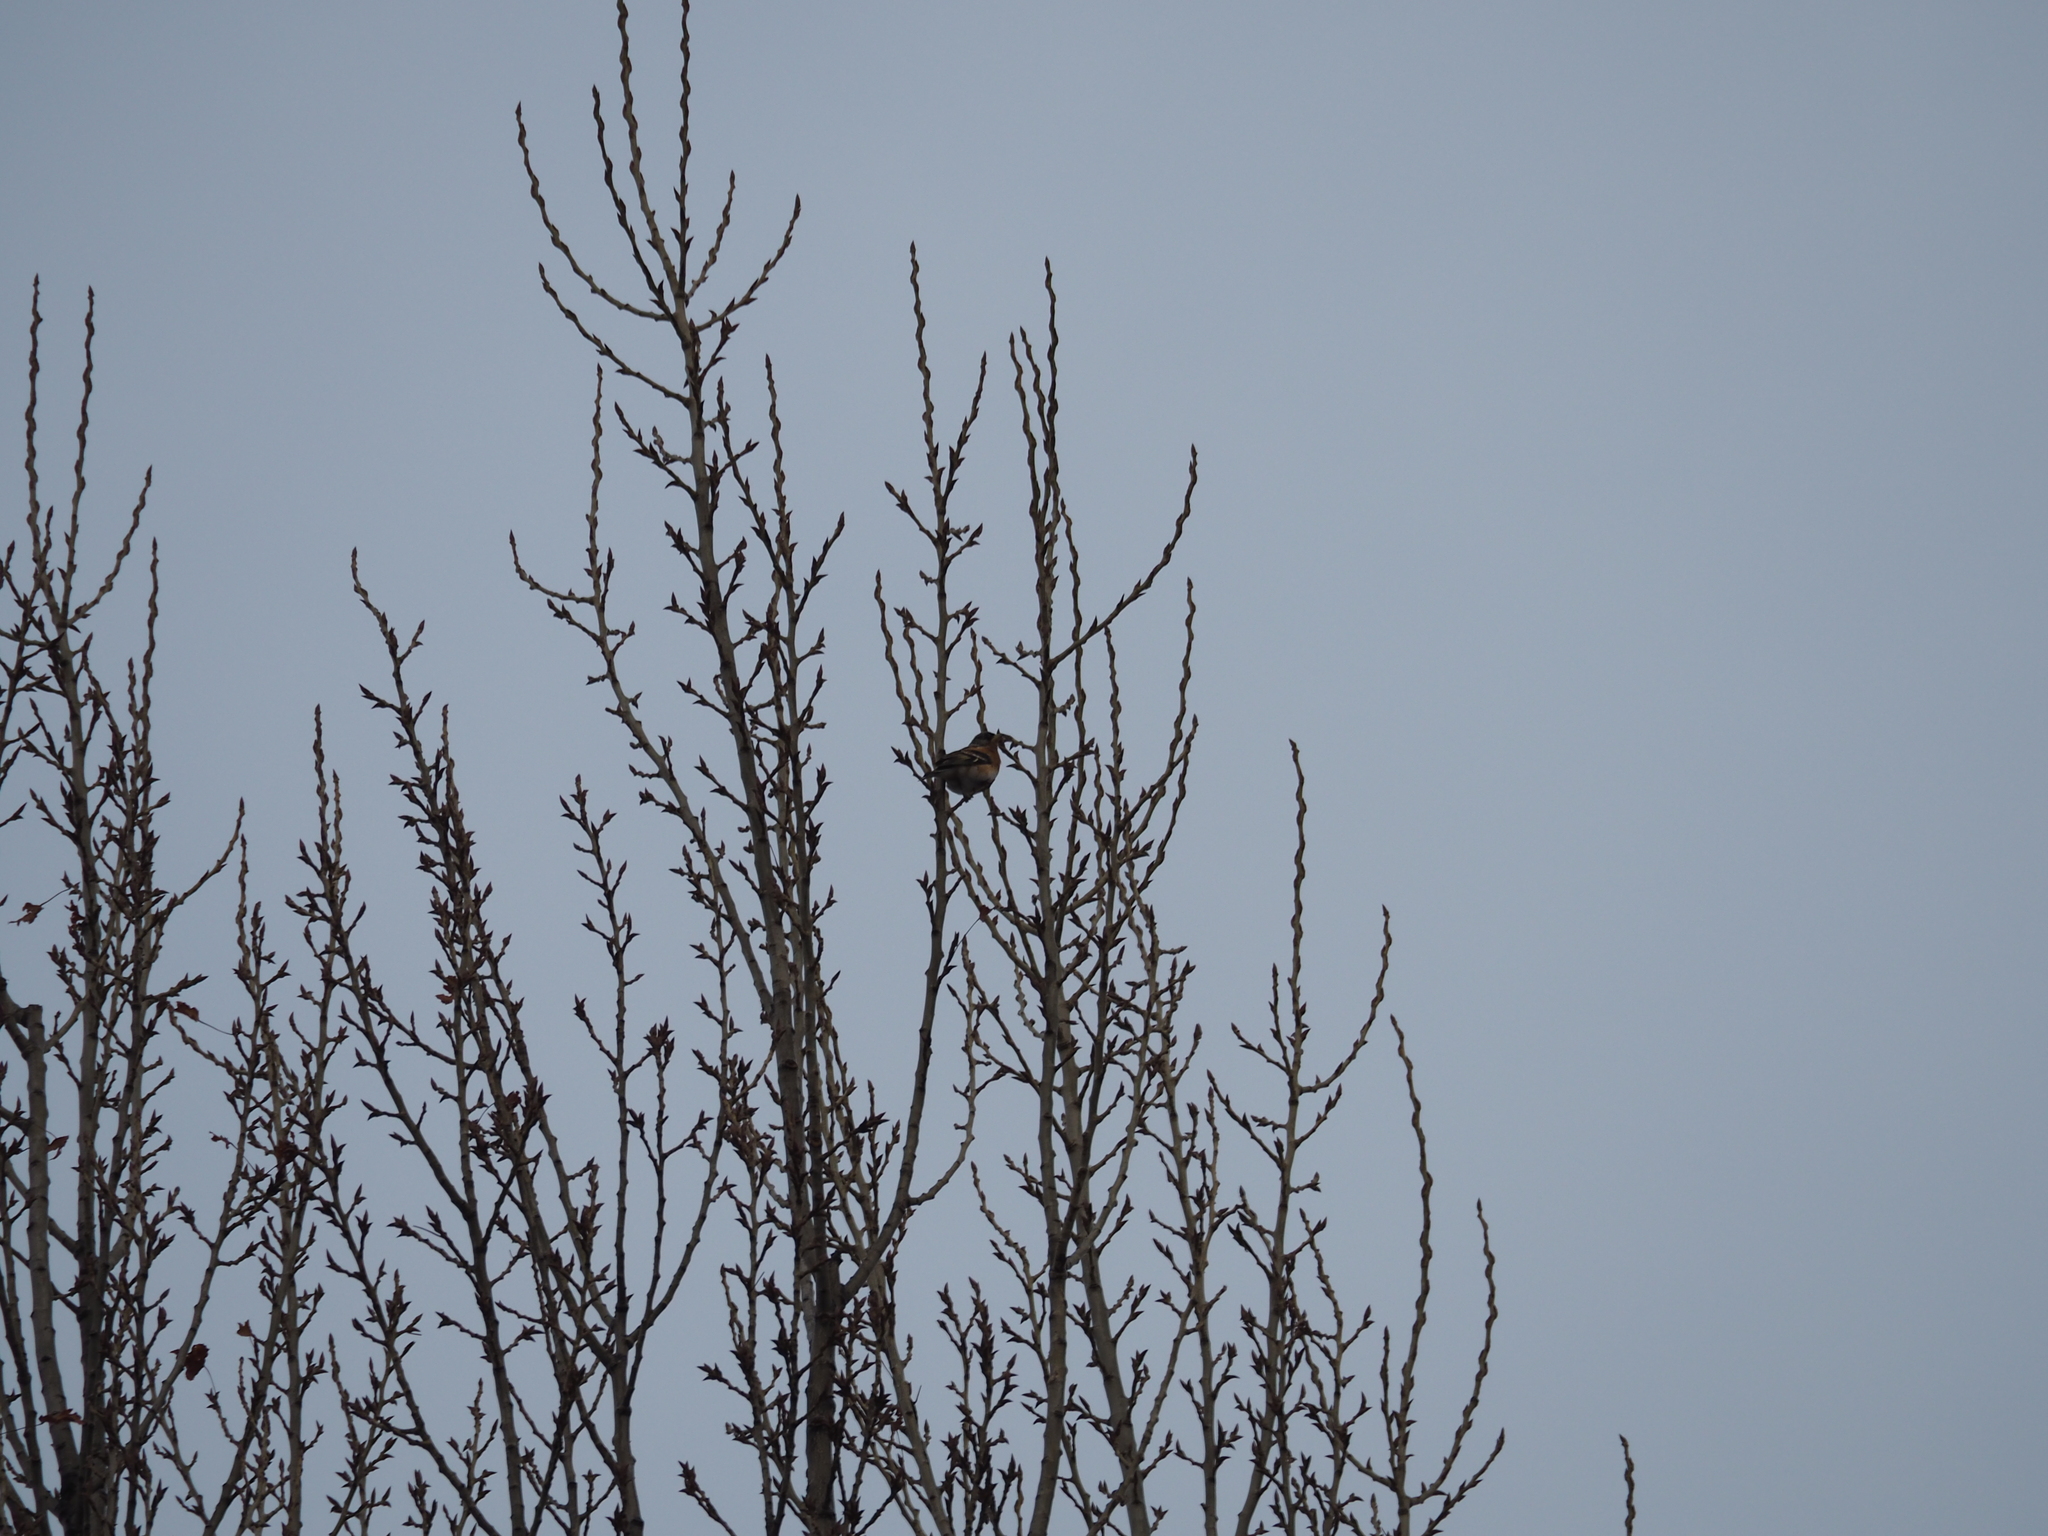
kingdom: Animalia
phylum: Chordata
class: Aves
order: Passeriformes
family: Fringillidae
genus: Fringilla
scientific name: Fringilla montifringilla
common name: Brambling
